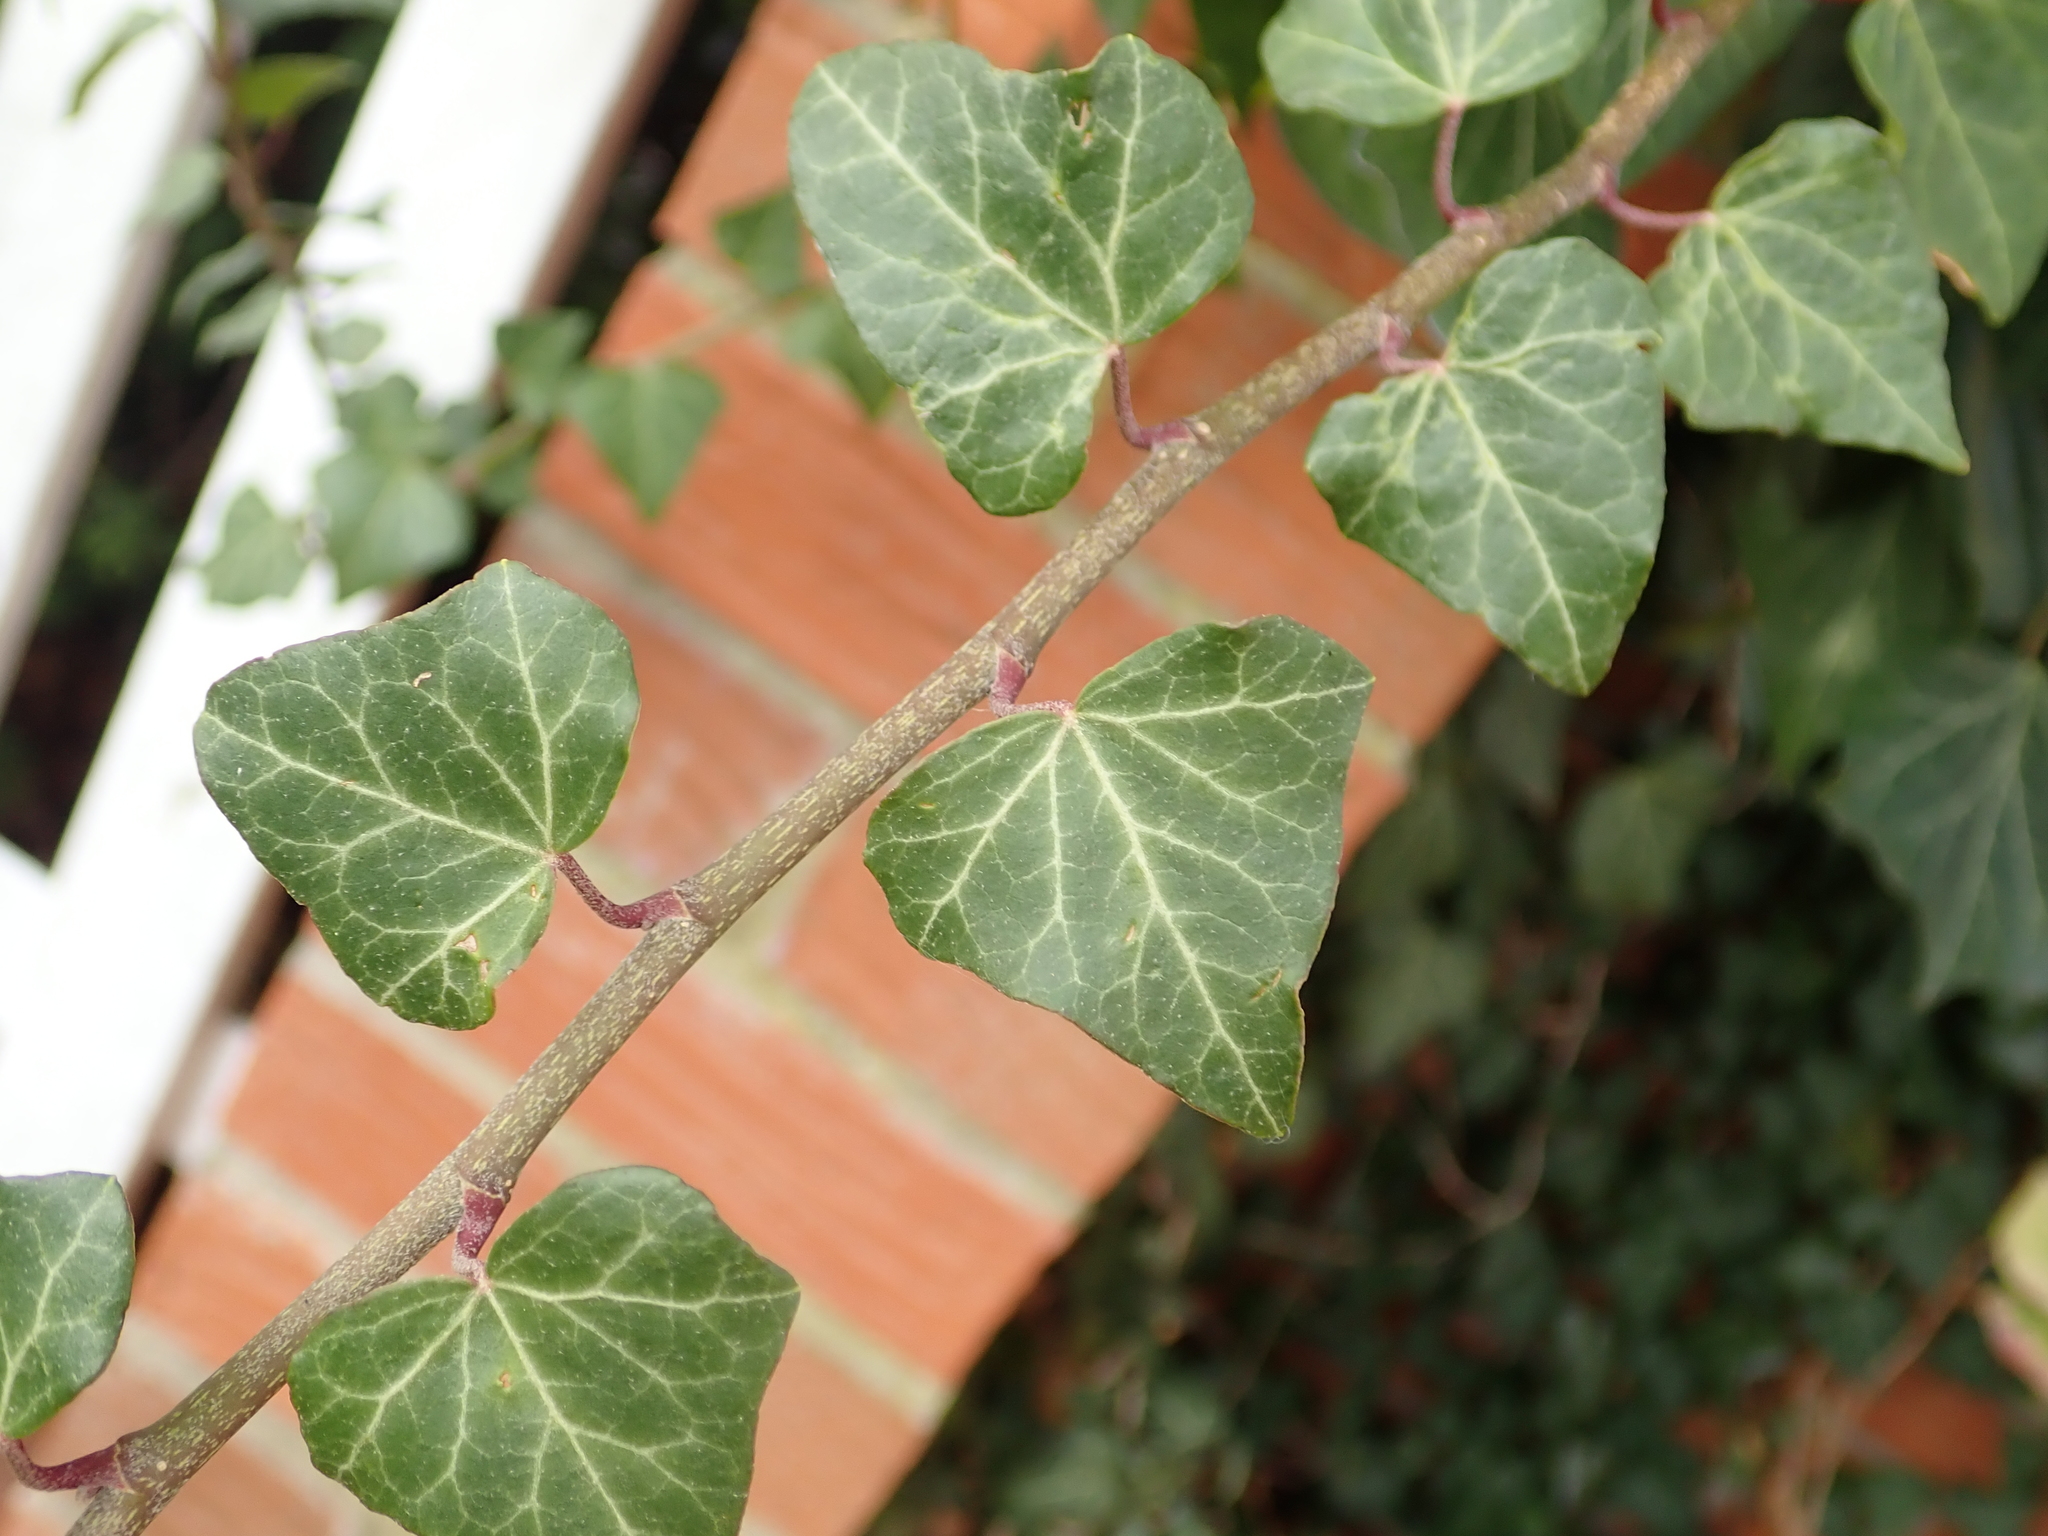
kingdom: Plantae
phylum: Tracheophyta
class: Magnoliopsida
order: Apiales
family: Araliaceae
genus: Hedera
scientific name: Hedera helix
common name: Ivy
